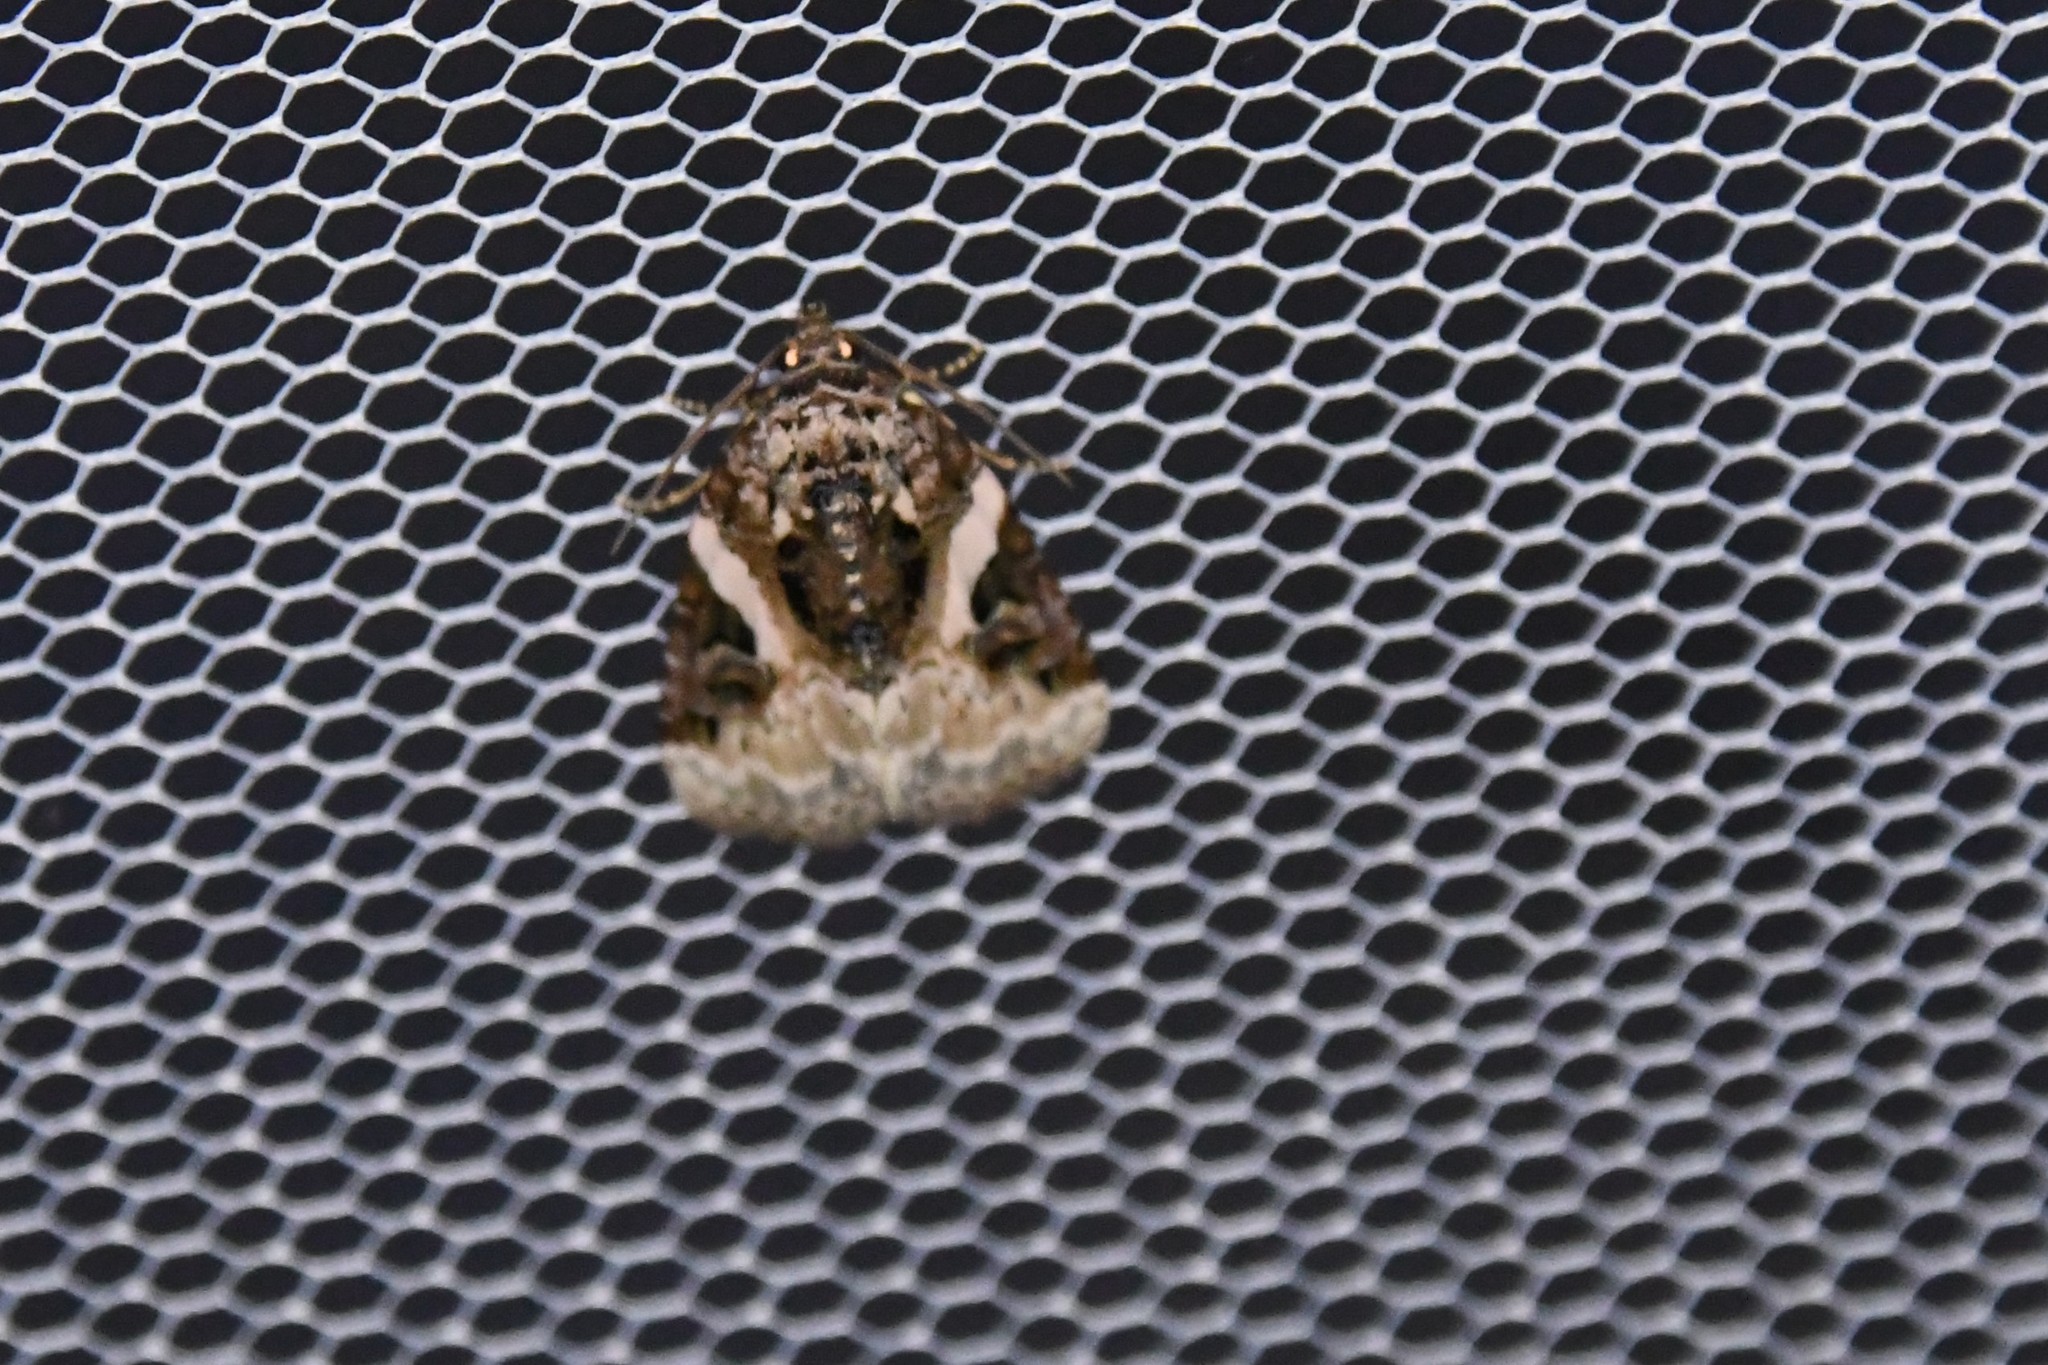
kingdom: Animalia
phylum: Arthropoda
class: Insecta
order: Lepidoptera
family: Noctuidae
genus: Pseudeustrotia
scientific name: Pseudeustrotia carneola
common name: Pink-barred lithacodia moth
